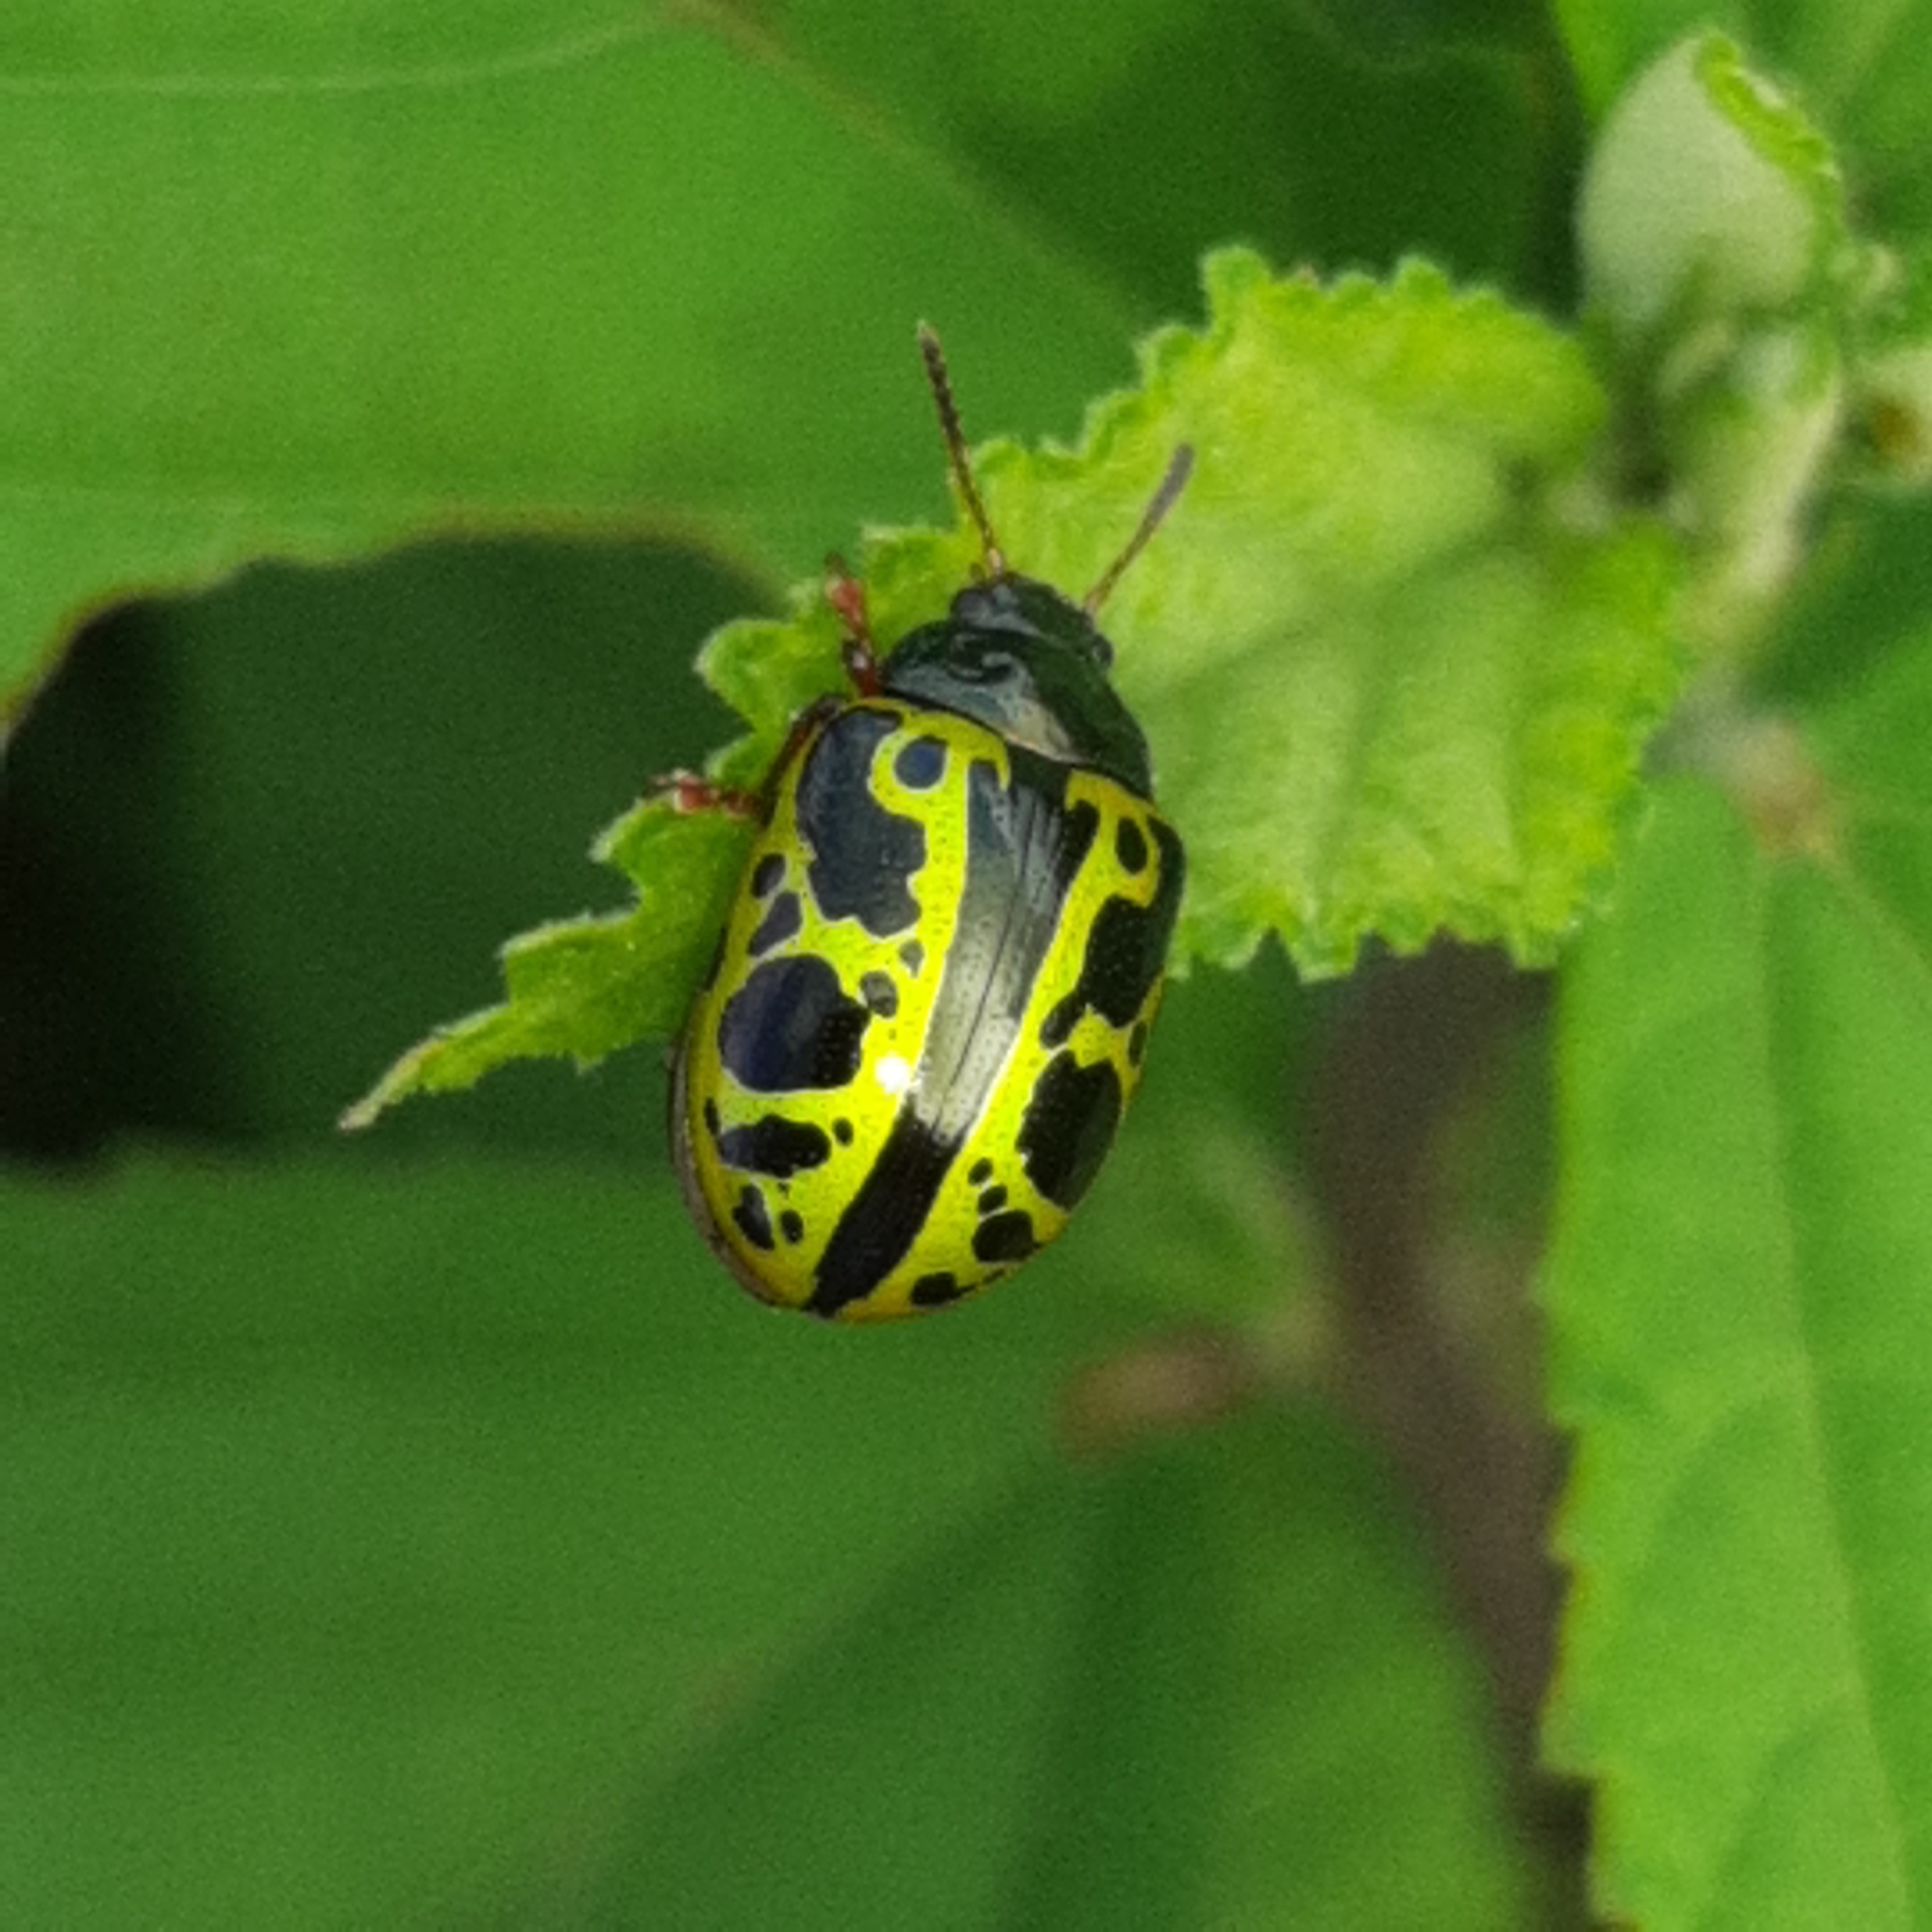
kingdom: Animalia
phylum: Arthropoda
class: Insecta
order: Coleoptera
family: Chrysomelidae
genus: Calligrapha
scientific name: Calligrapha fulvipes
